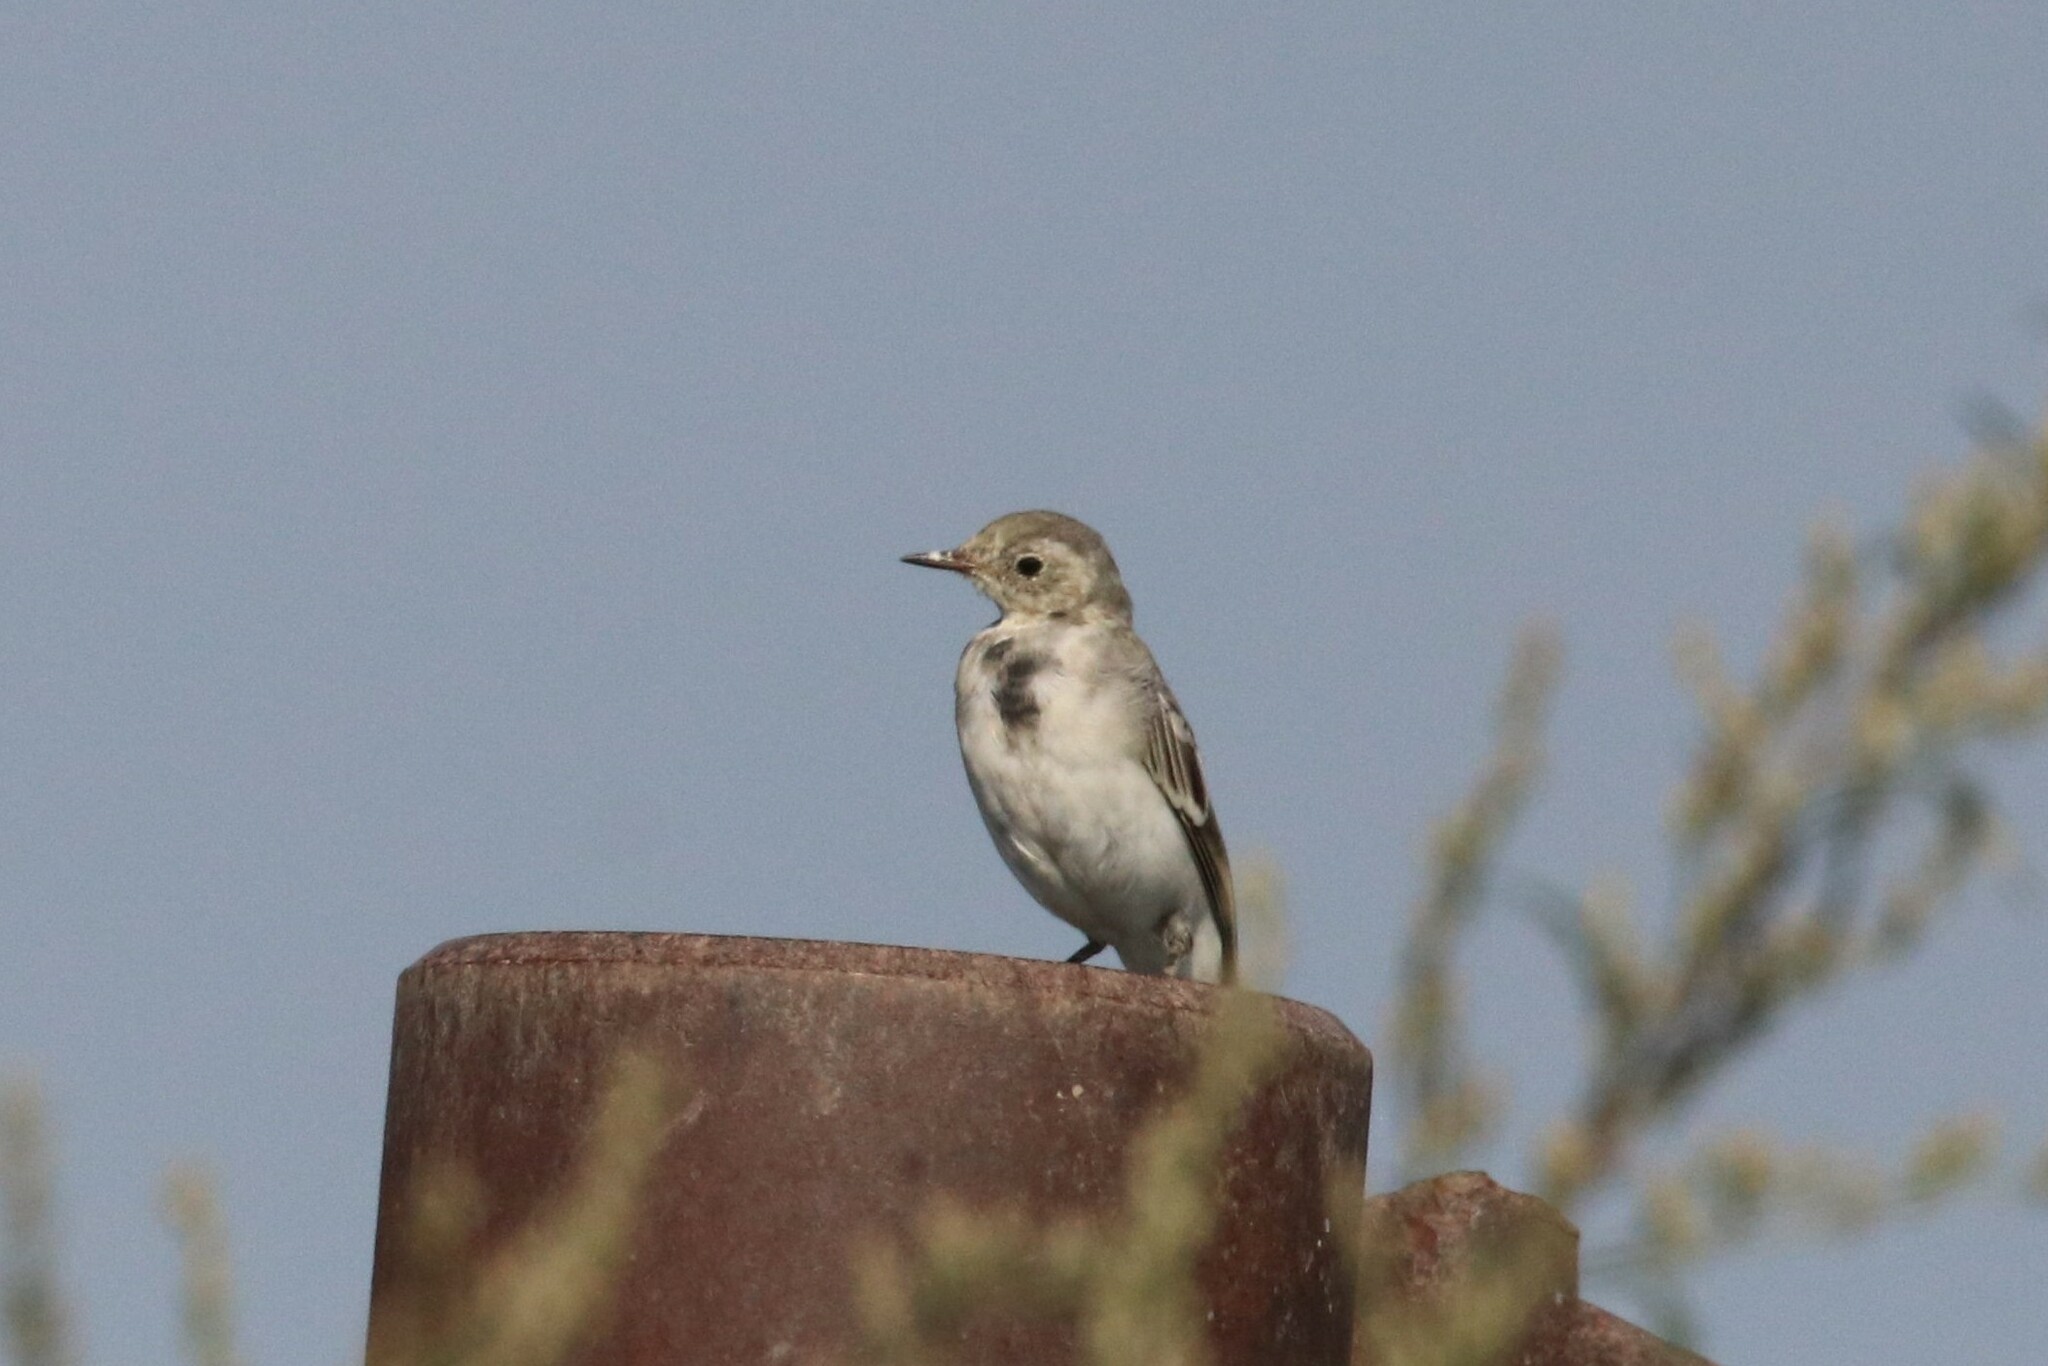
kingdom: Animalia
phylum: Chordata
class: Aves
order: Passeriformes
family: Motacillidae
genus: Motacilla
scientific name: Motacilla alba
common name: White wagtail
